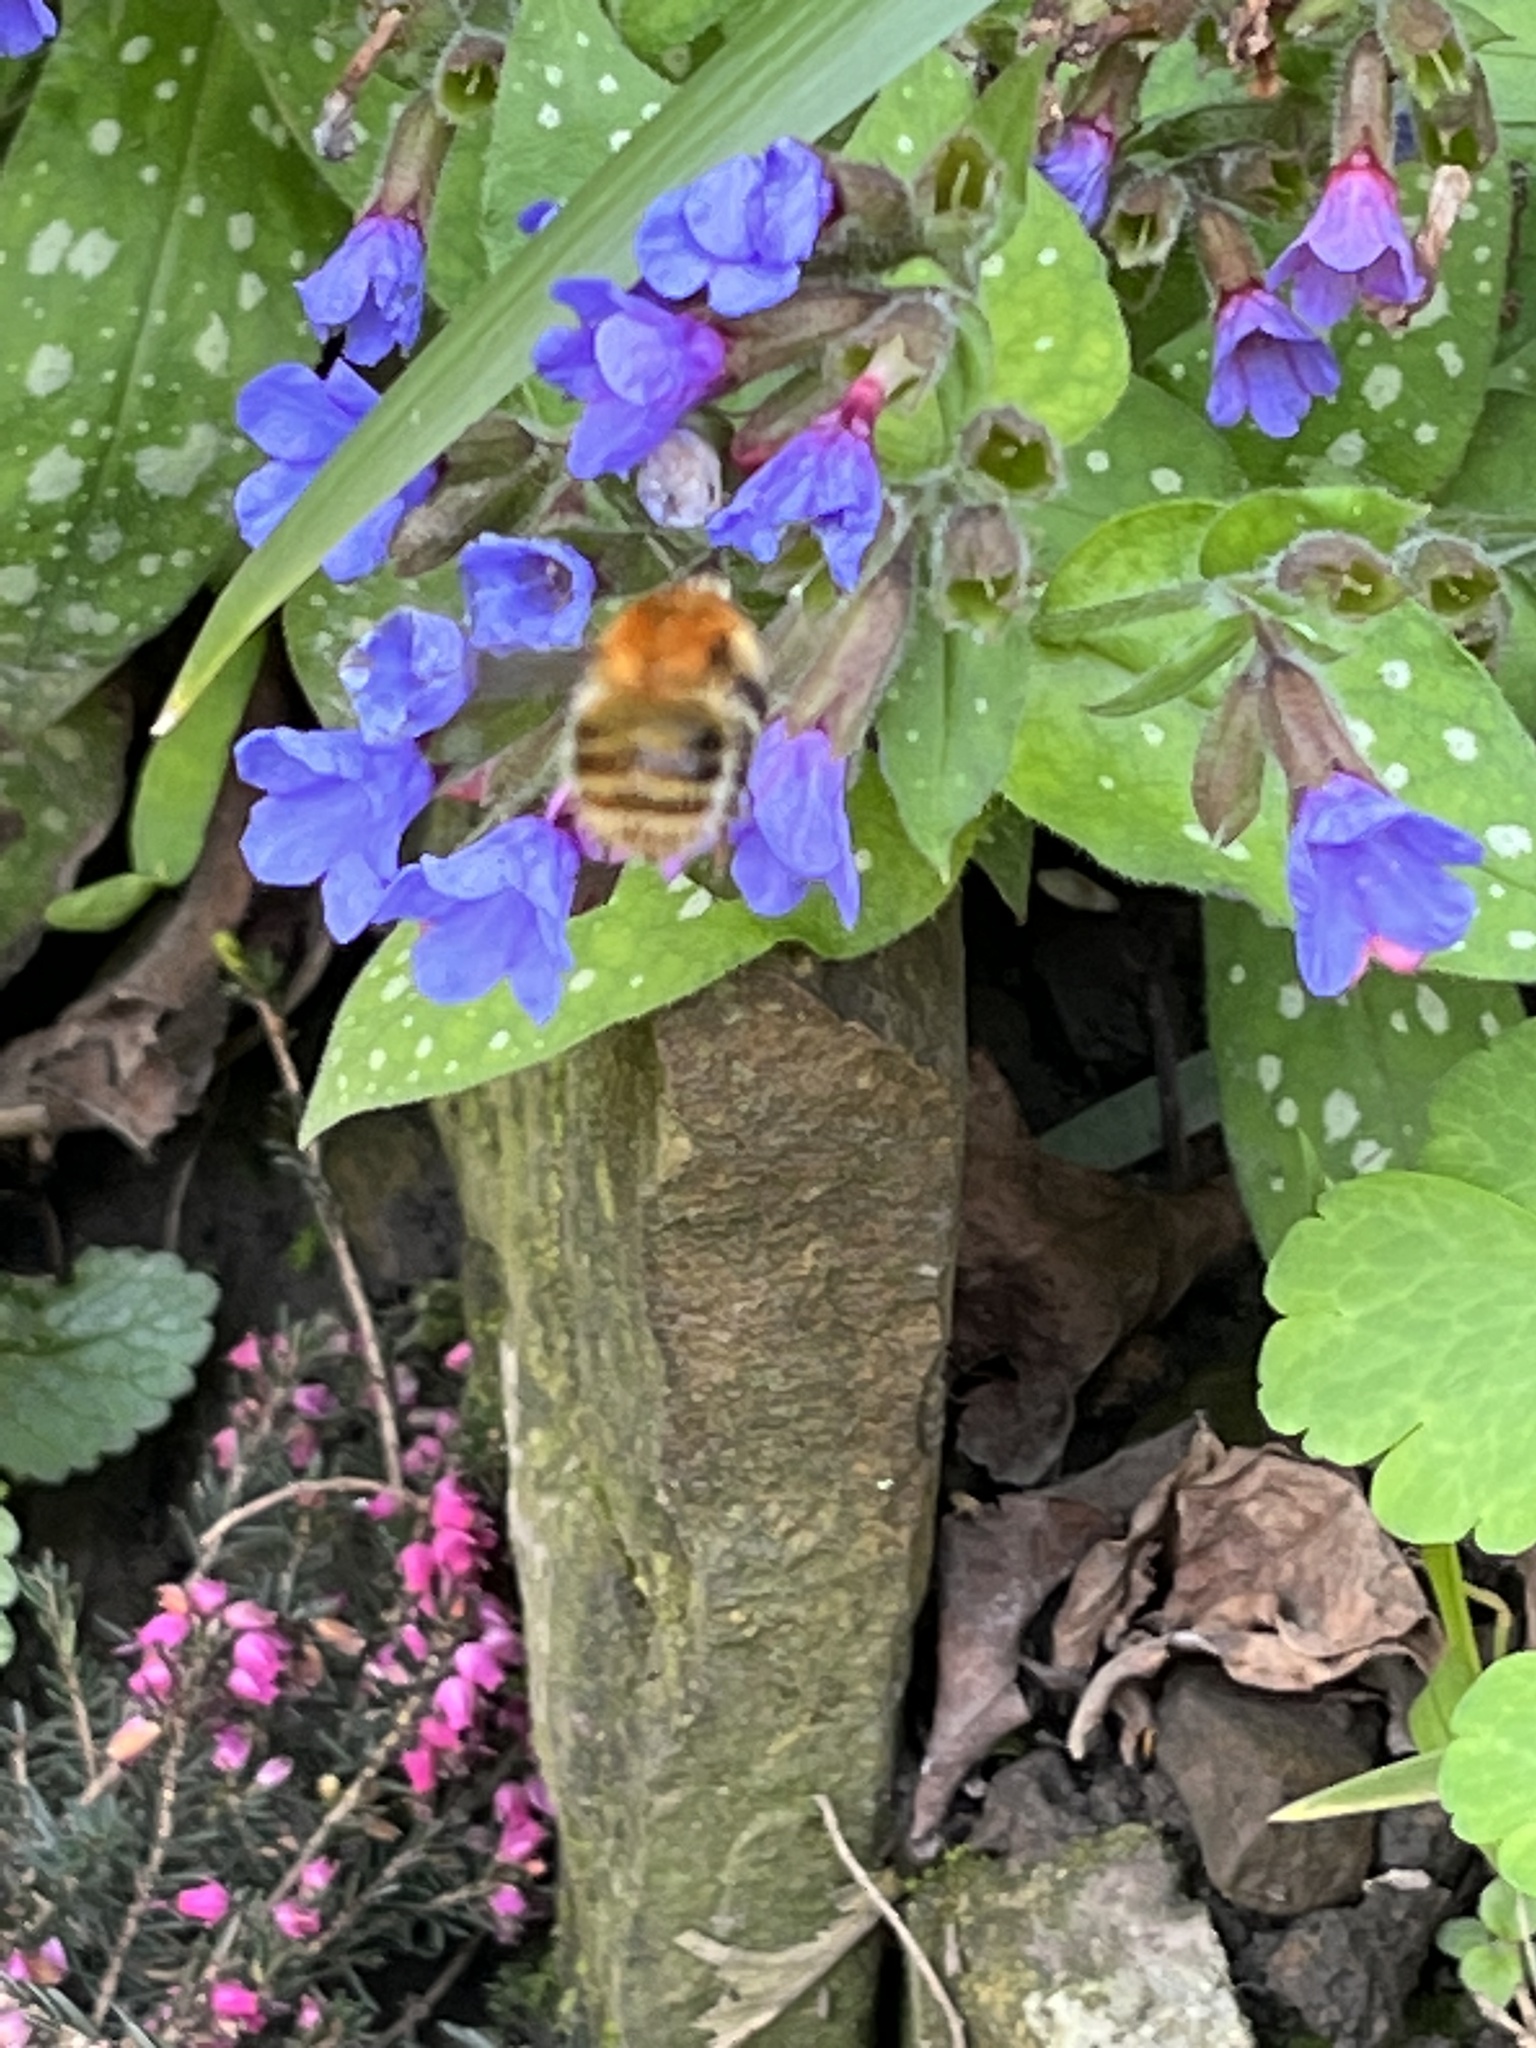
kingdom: Animalia
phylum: Arthropoda
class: Insecta
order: Hymenoptera
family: Apidae
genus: Bombus
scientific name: Bombus pascuorum
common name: Common carder bee
